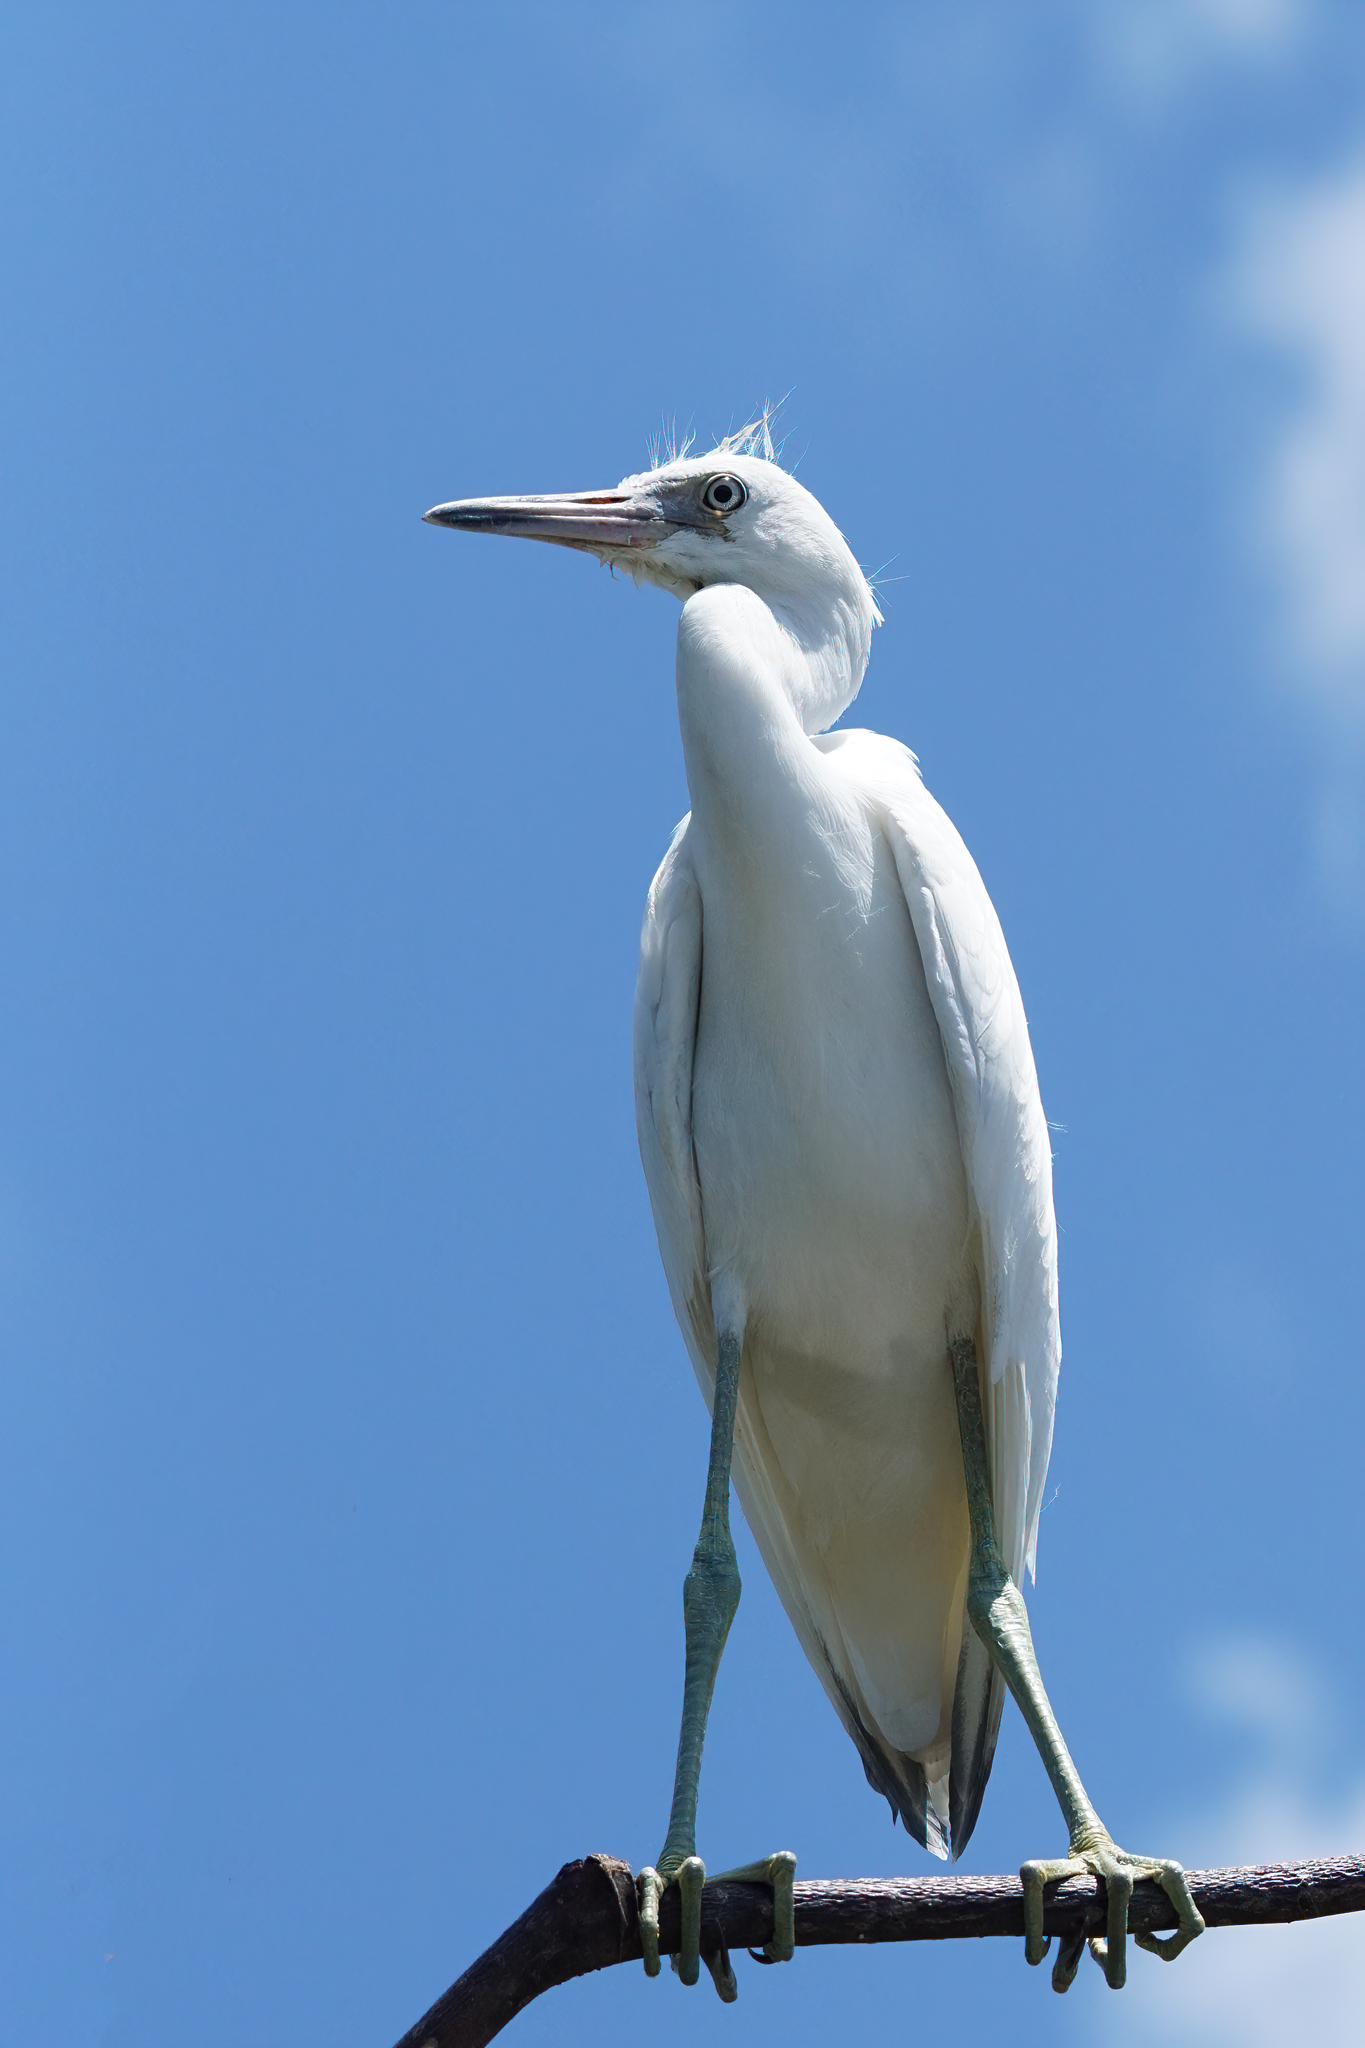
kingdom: Animalia
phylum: Chordata
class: Aves
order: Pelecaniformes
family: Ardeidae
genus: Egretta
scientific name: Egretta caerulea
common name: Little blue heron
